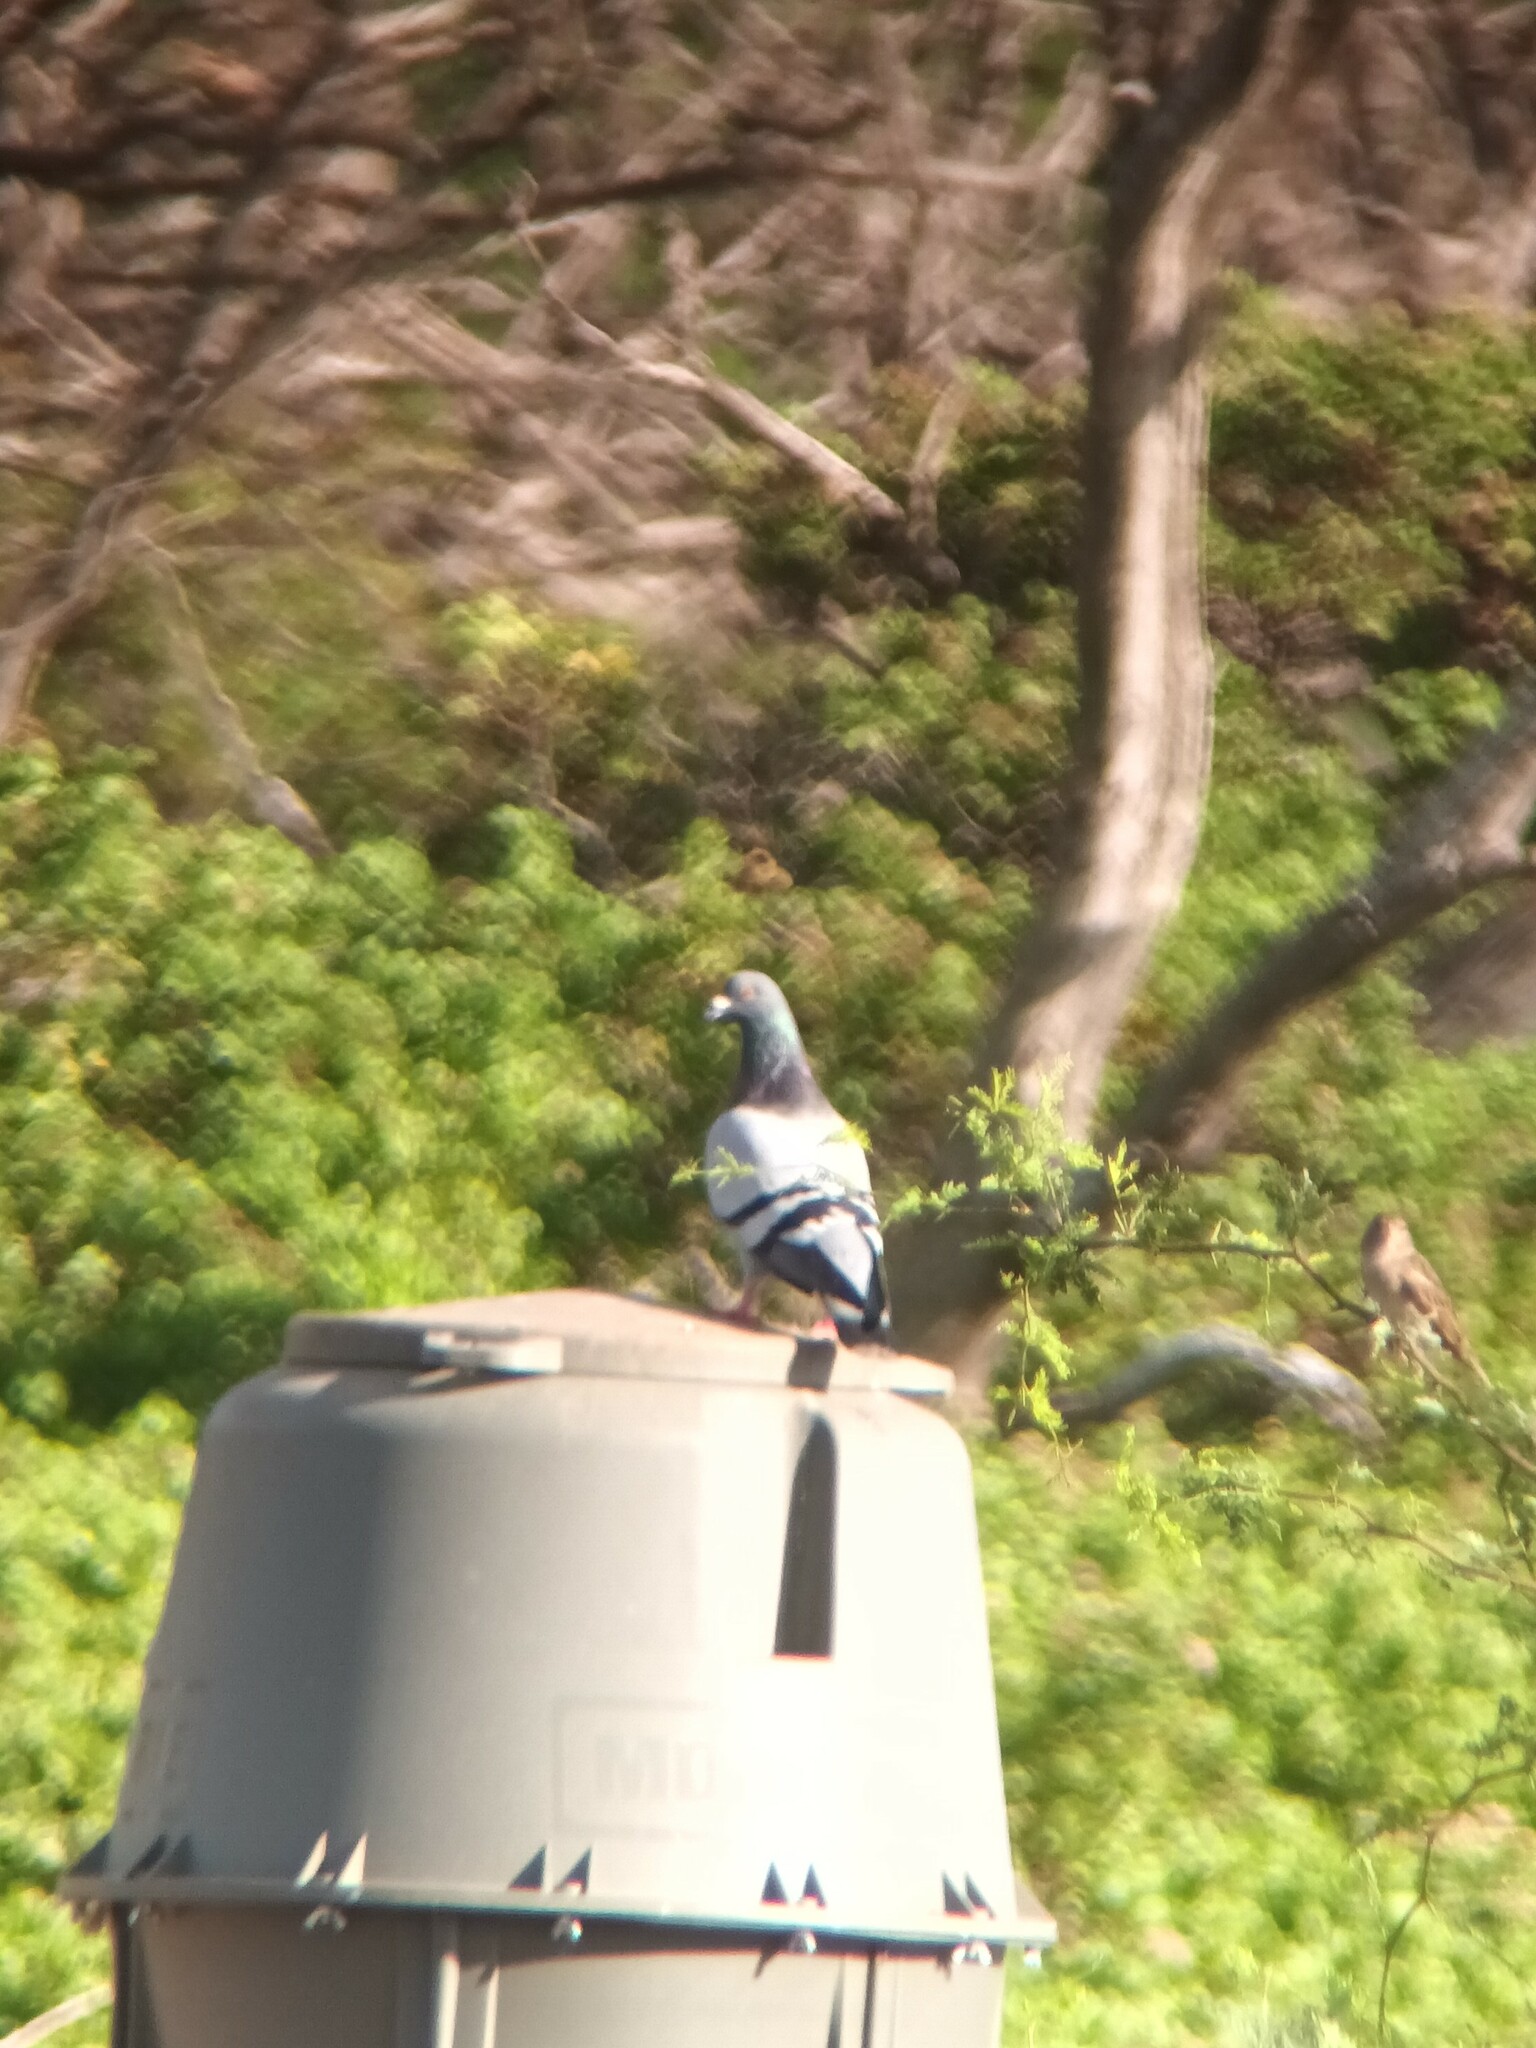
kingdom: Animalia
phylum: Chordata
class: Aves
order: Columbiformes
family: Columbidae
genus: Columba
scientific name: Columba livia
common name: Rock pigeon
